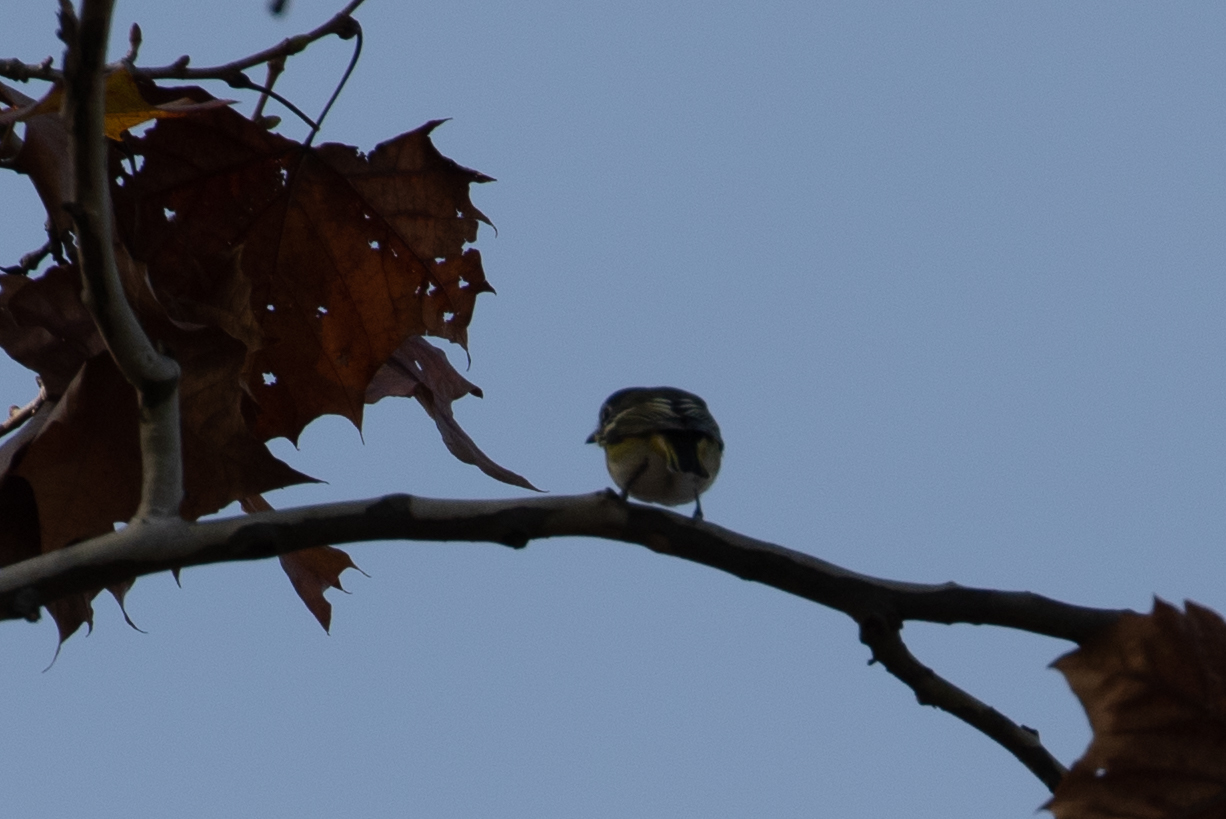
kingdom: Animalia
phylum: Chordata
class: Aves
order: Passeriformes
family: Vireonidae
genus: Vireo
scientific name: Vireo solitarius
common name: Blue-headed vireo
